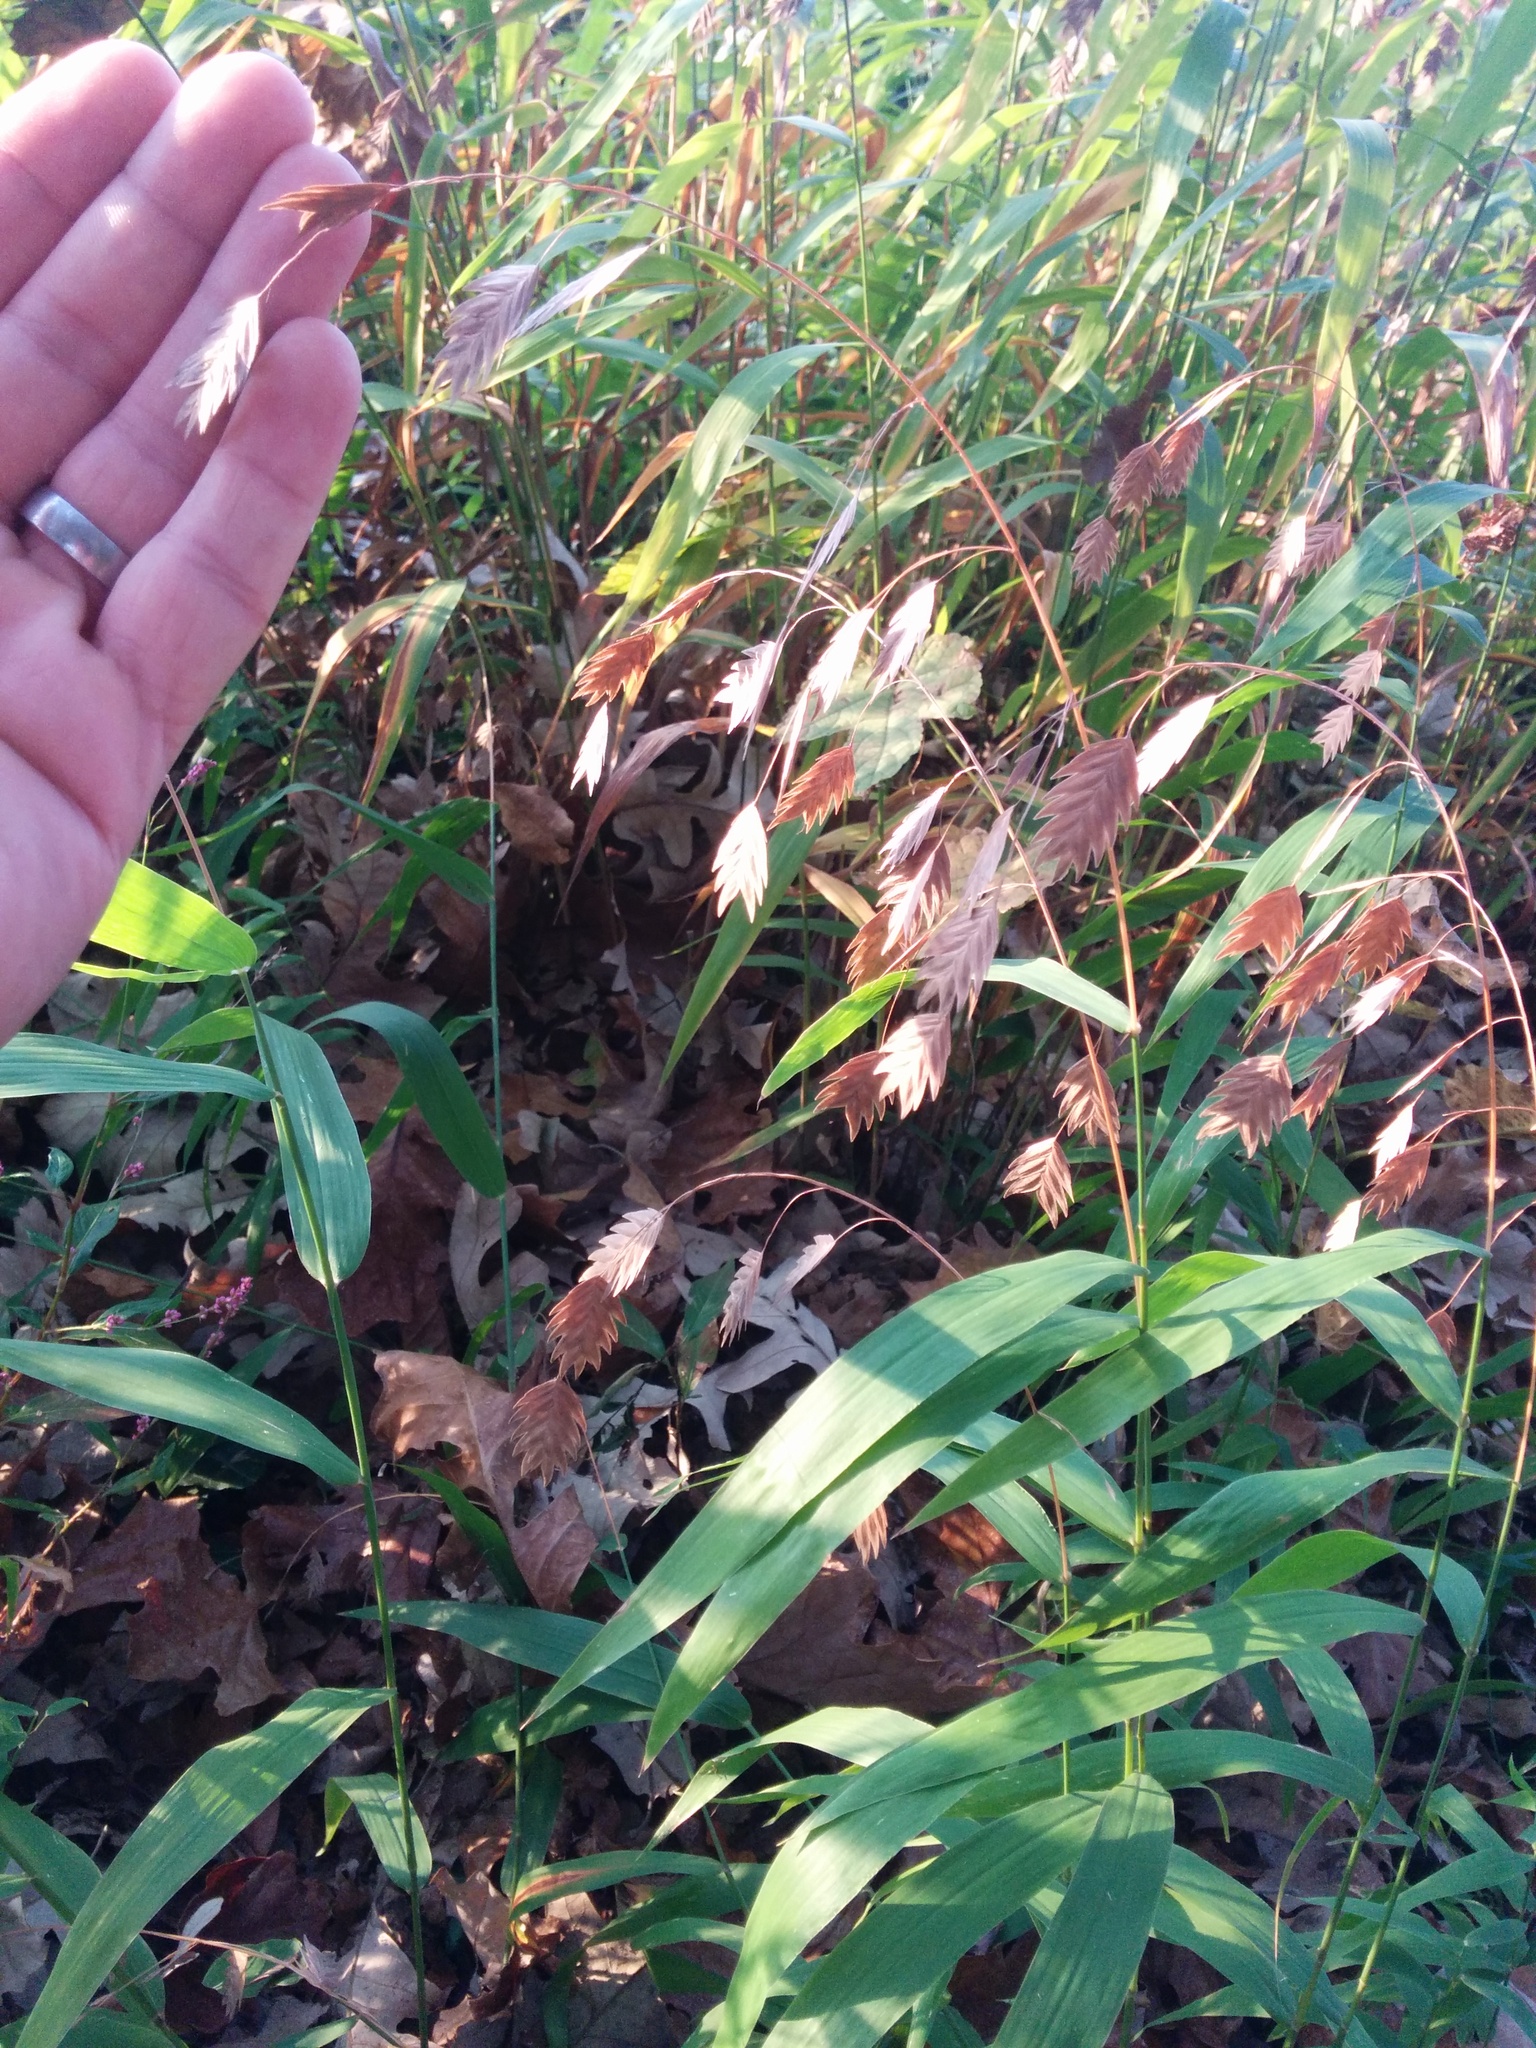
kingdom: Plantae
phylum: Tracheophyta
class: Liliopsida
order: Poales
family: Poaceae
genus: Chasmanthium
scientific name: Chasmanthium latifolium
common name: Broad-leaved chasmanthium
